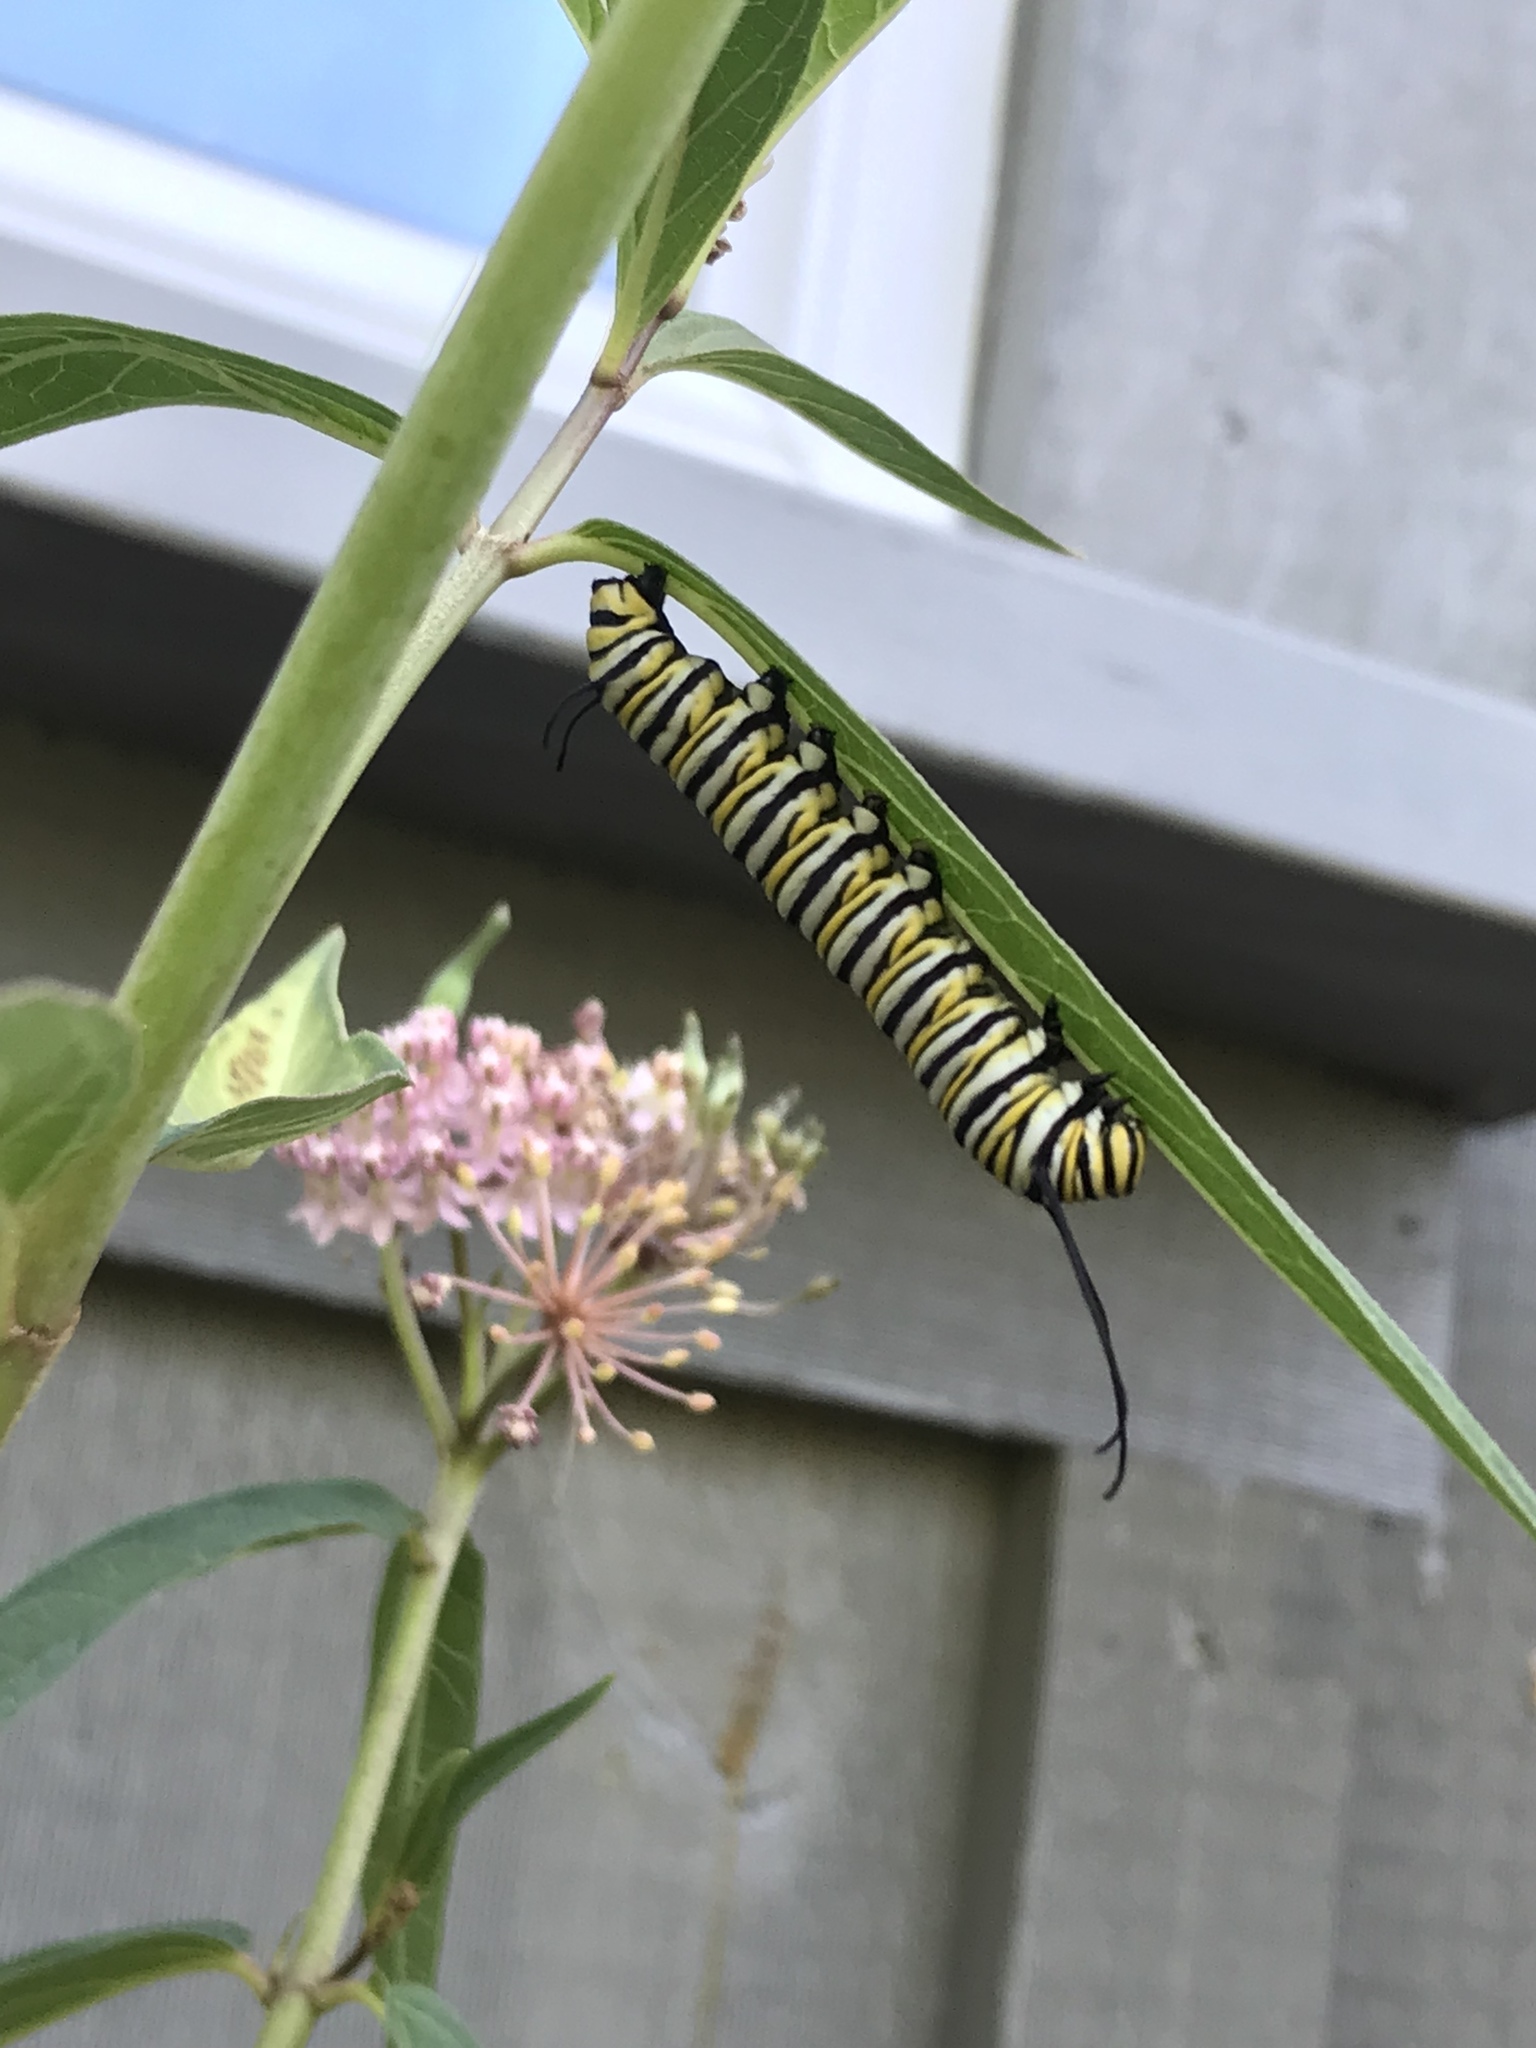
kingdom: Animalia
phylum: Arthropoda
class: Insecta
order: Lepidoptera
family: Nymphalidae
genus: Danaus
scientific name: Danaus plexippus
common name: Monarch
